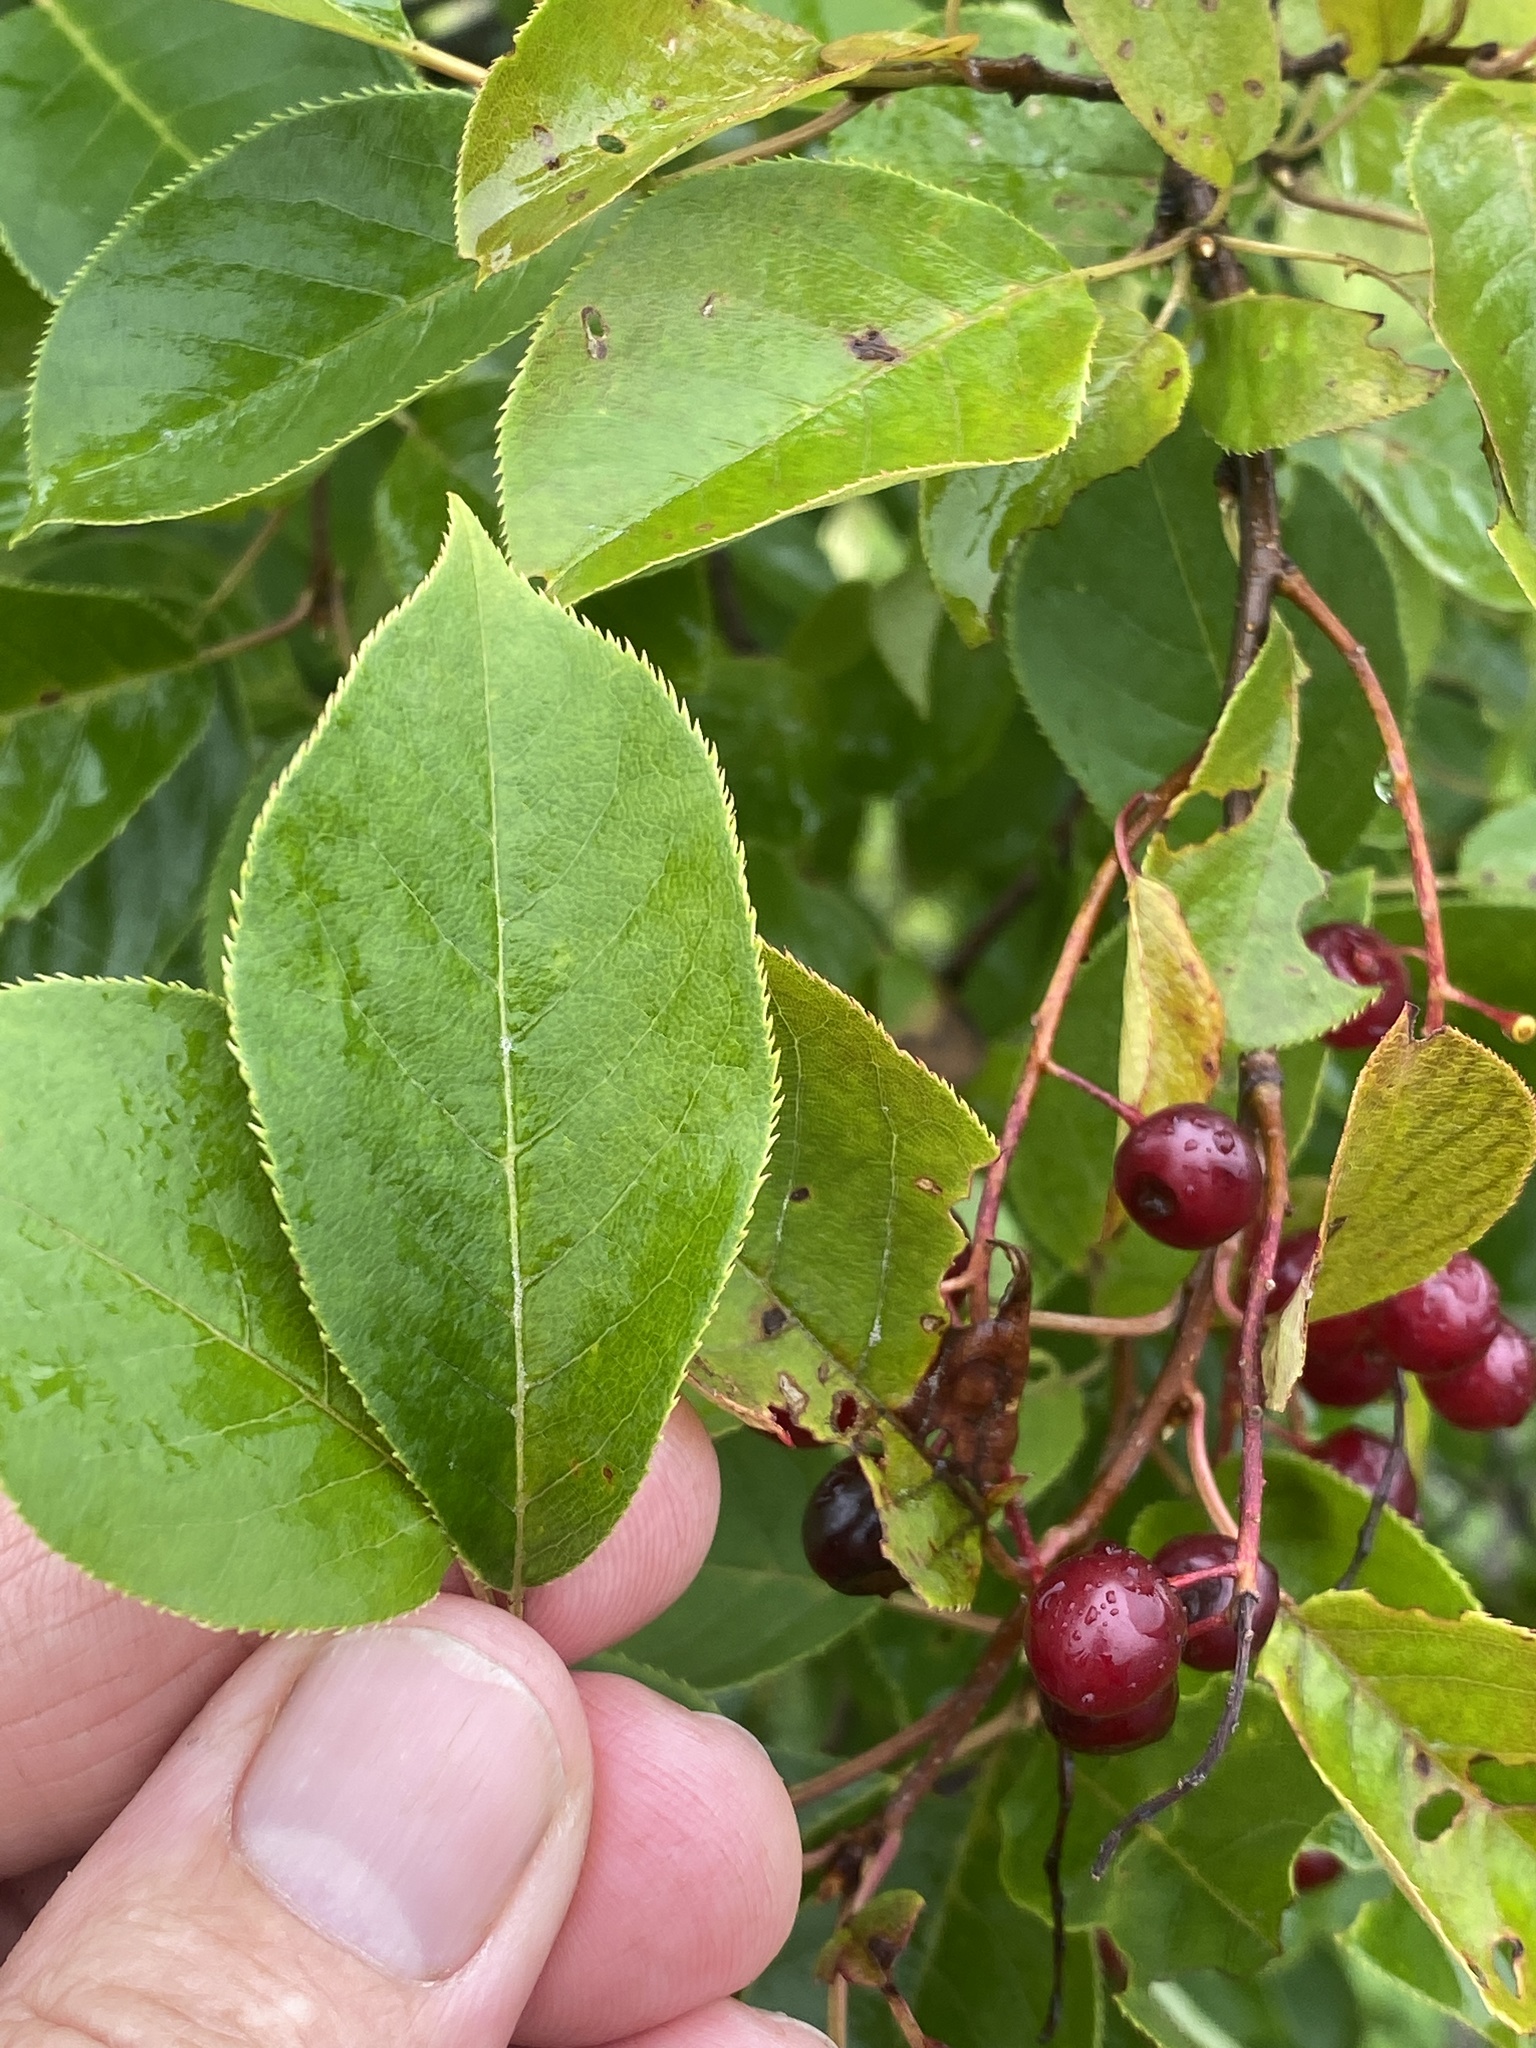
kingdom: Plantae
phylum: Tracheophyta
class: Magnoliopsida
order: Rosales
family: Rosaceae
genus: Prunus
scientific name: Prunus virginiana
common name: Chokecherry
